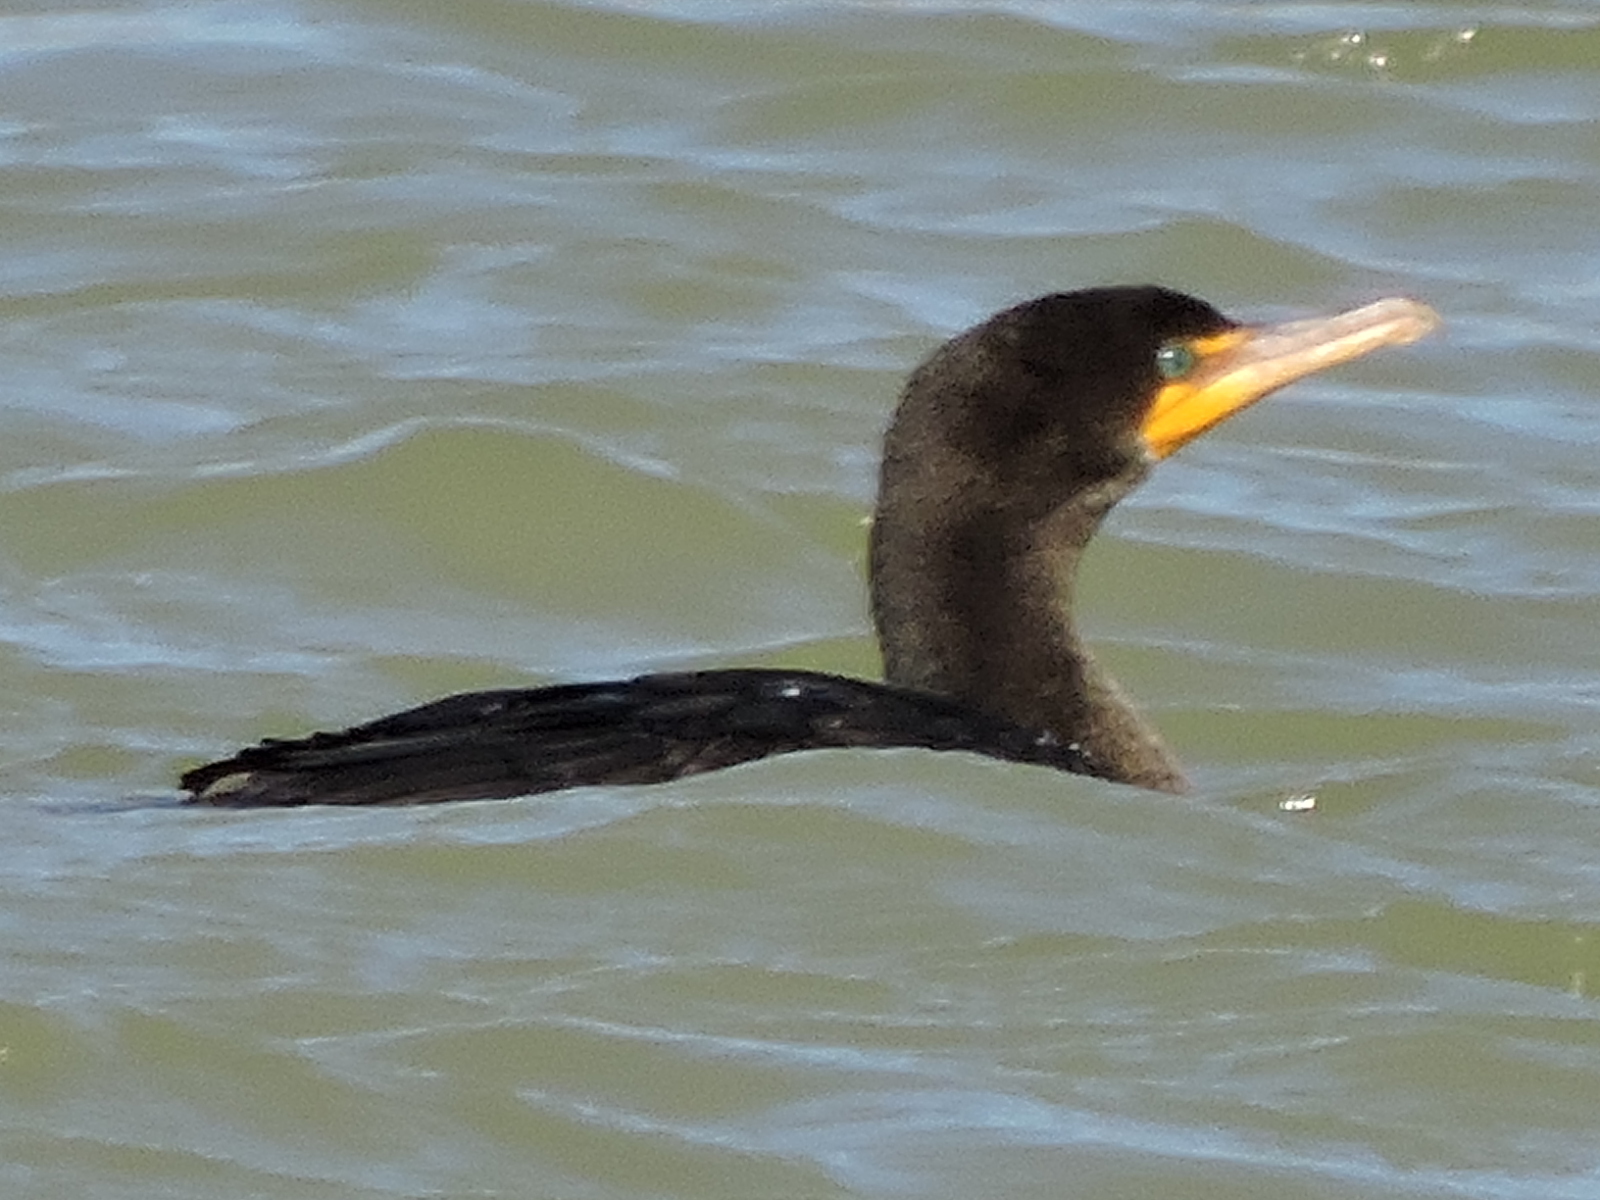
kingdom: Animalia
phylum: Chordata
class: Aves
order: Suliformes
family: Phalacrocoracidae
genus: Phalacrocorax
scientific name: Phalacrocorax auritus
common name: Double-crested cormorant
